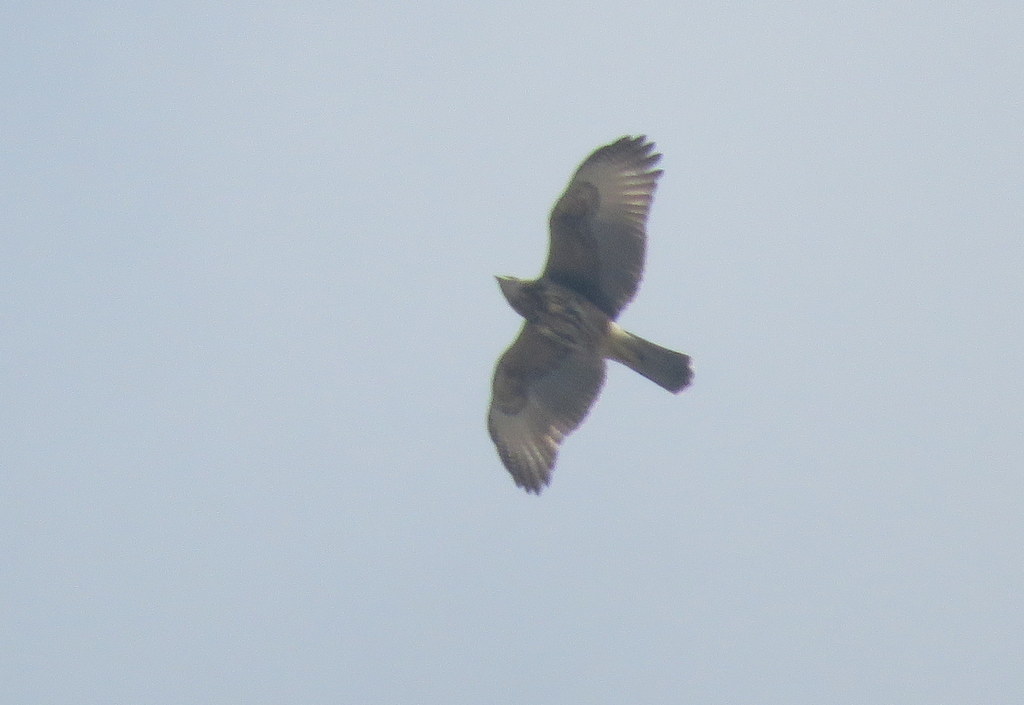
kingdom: Animalia
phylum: Chordata
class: Aves
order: Accipitriformes
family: Accipitridae
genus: Parabuteo
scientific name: Parabuteo unicinctus
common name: Harris's hawk
